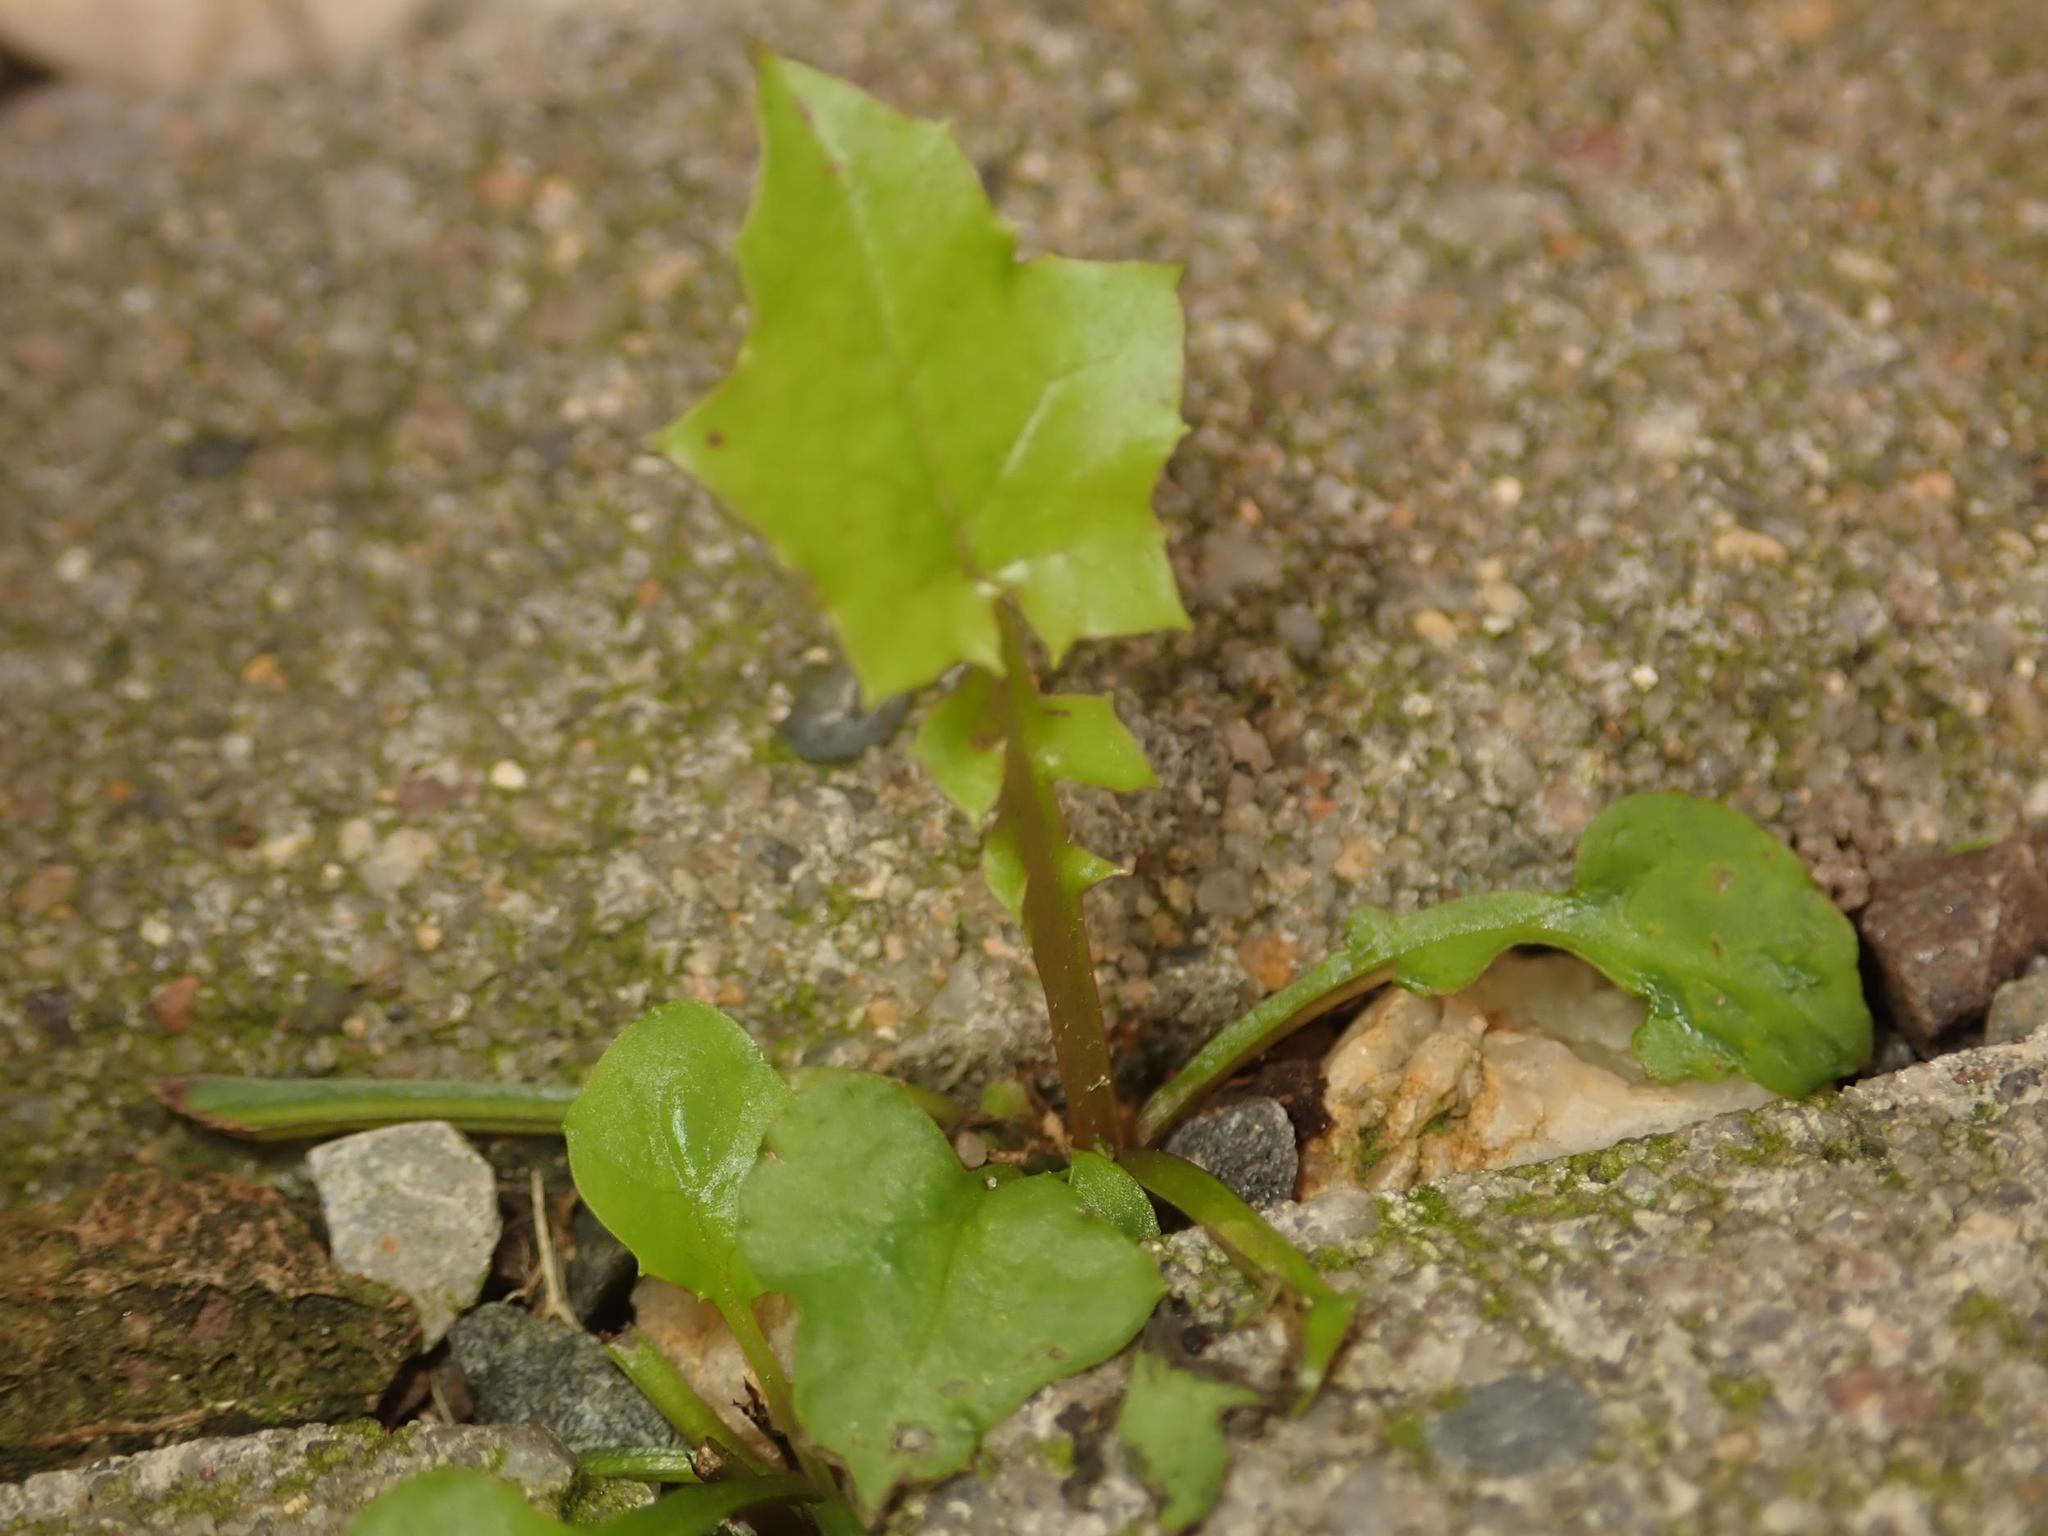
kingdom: Plantae
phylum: Tracheophyta
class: Magnoliopsida
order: Asterales
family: Asteraceae
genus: Mycelis
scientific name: Mycelis muralis
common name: Wall lettuce
